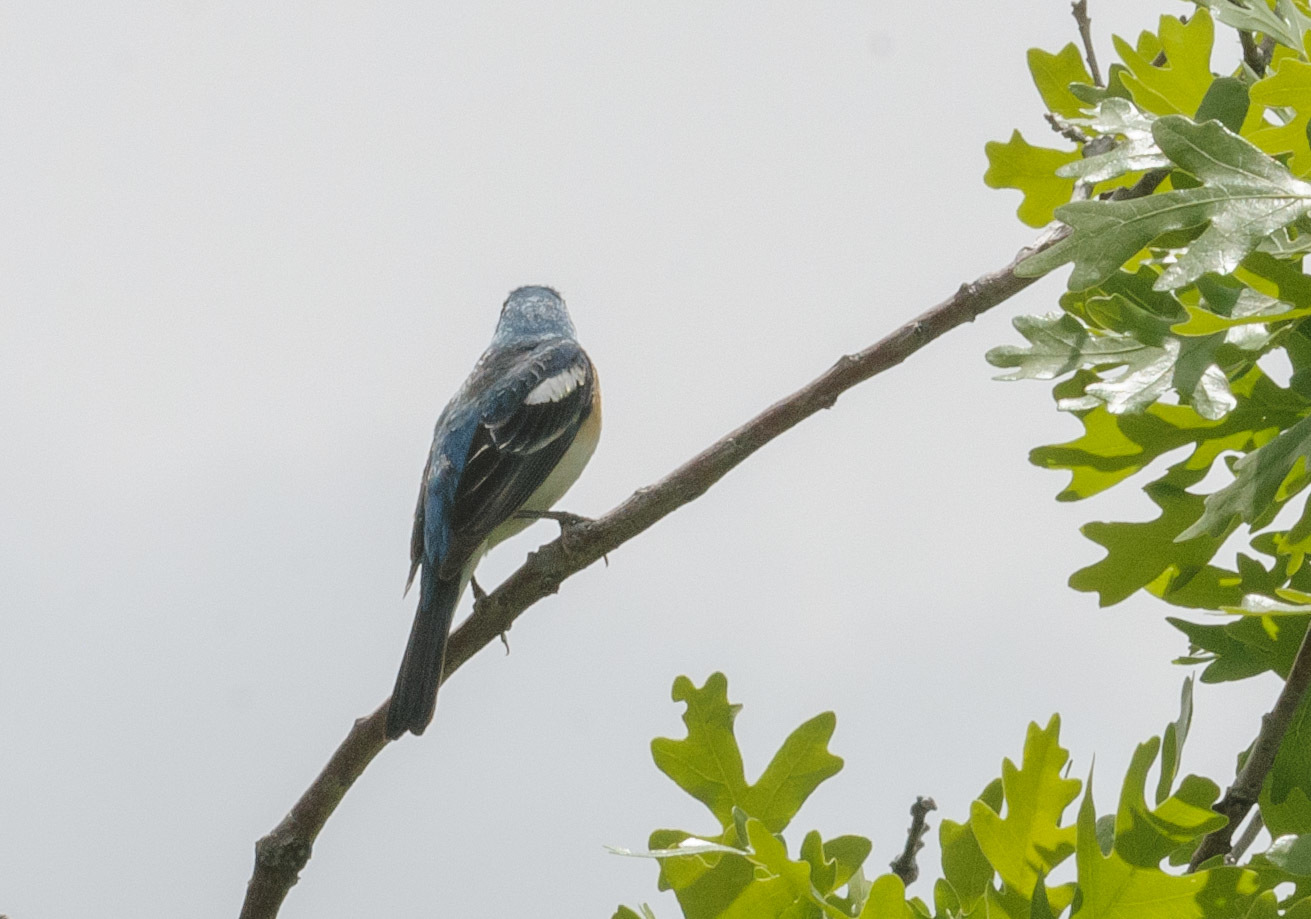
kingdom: Animalia
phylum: Chordata
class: Aves
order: Passeriformes
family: Cardinalidae
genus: Passerina
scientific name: Passerina amoena
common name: Lazuli bunting
